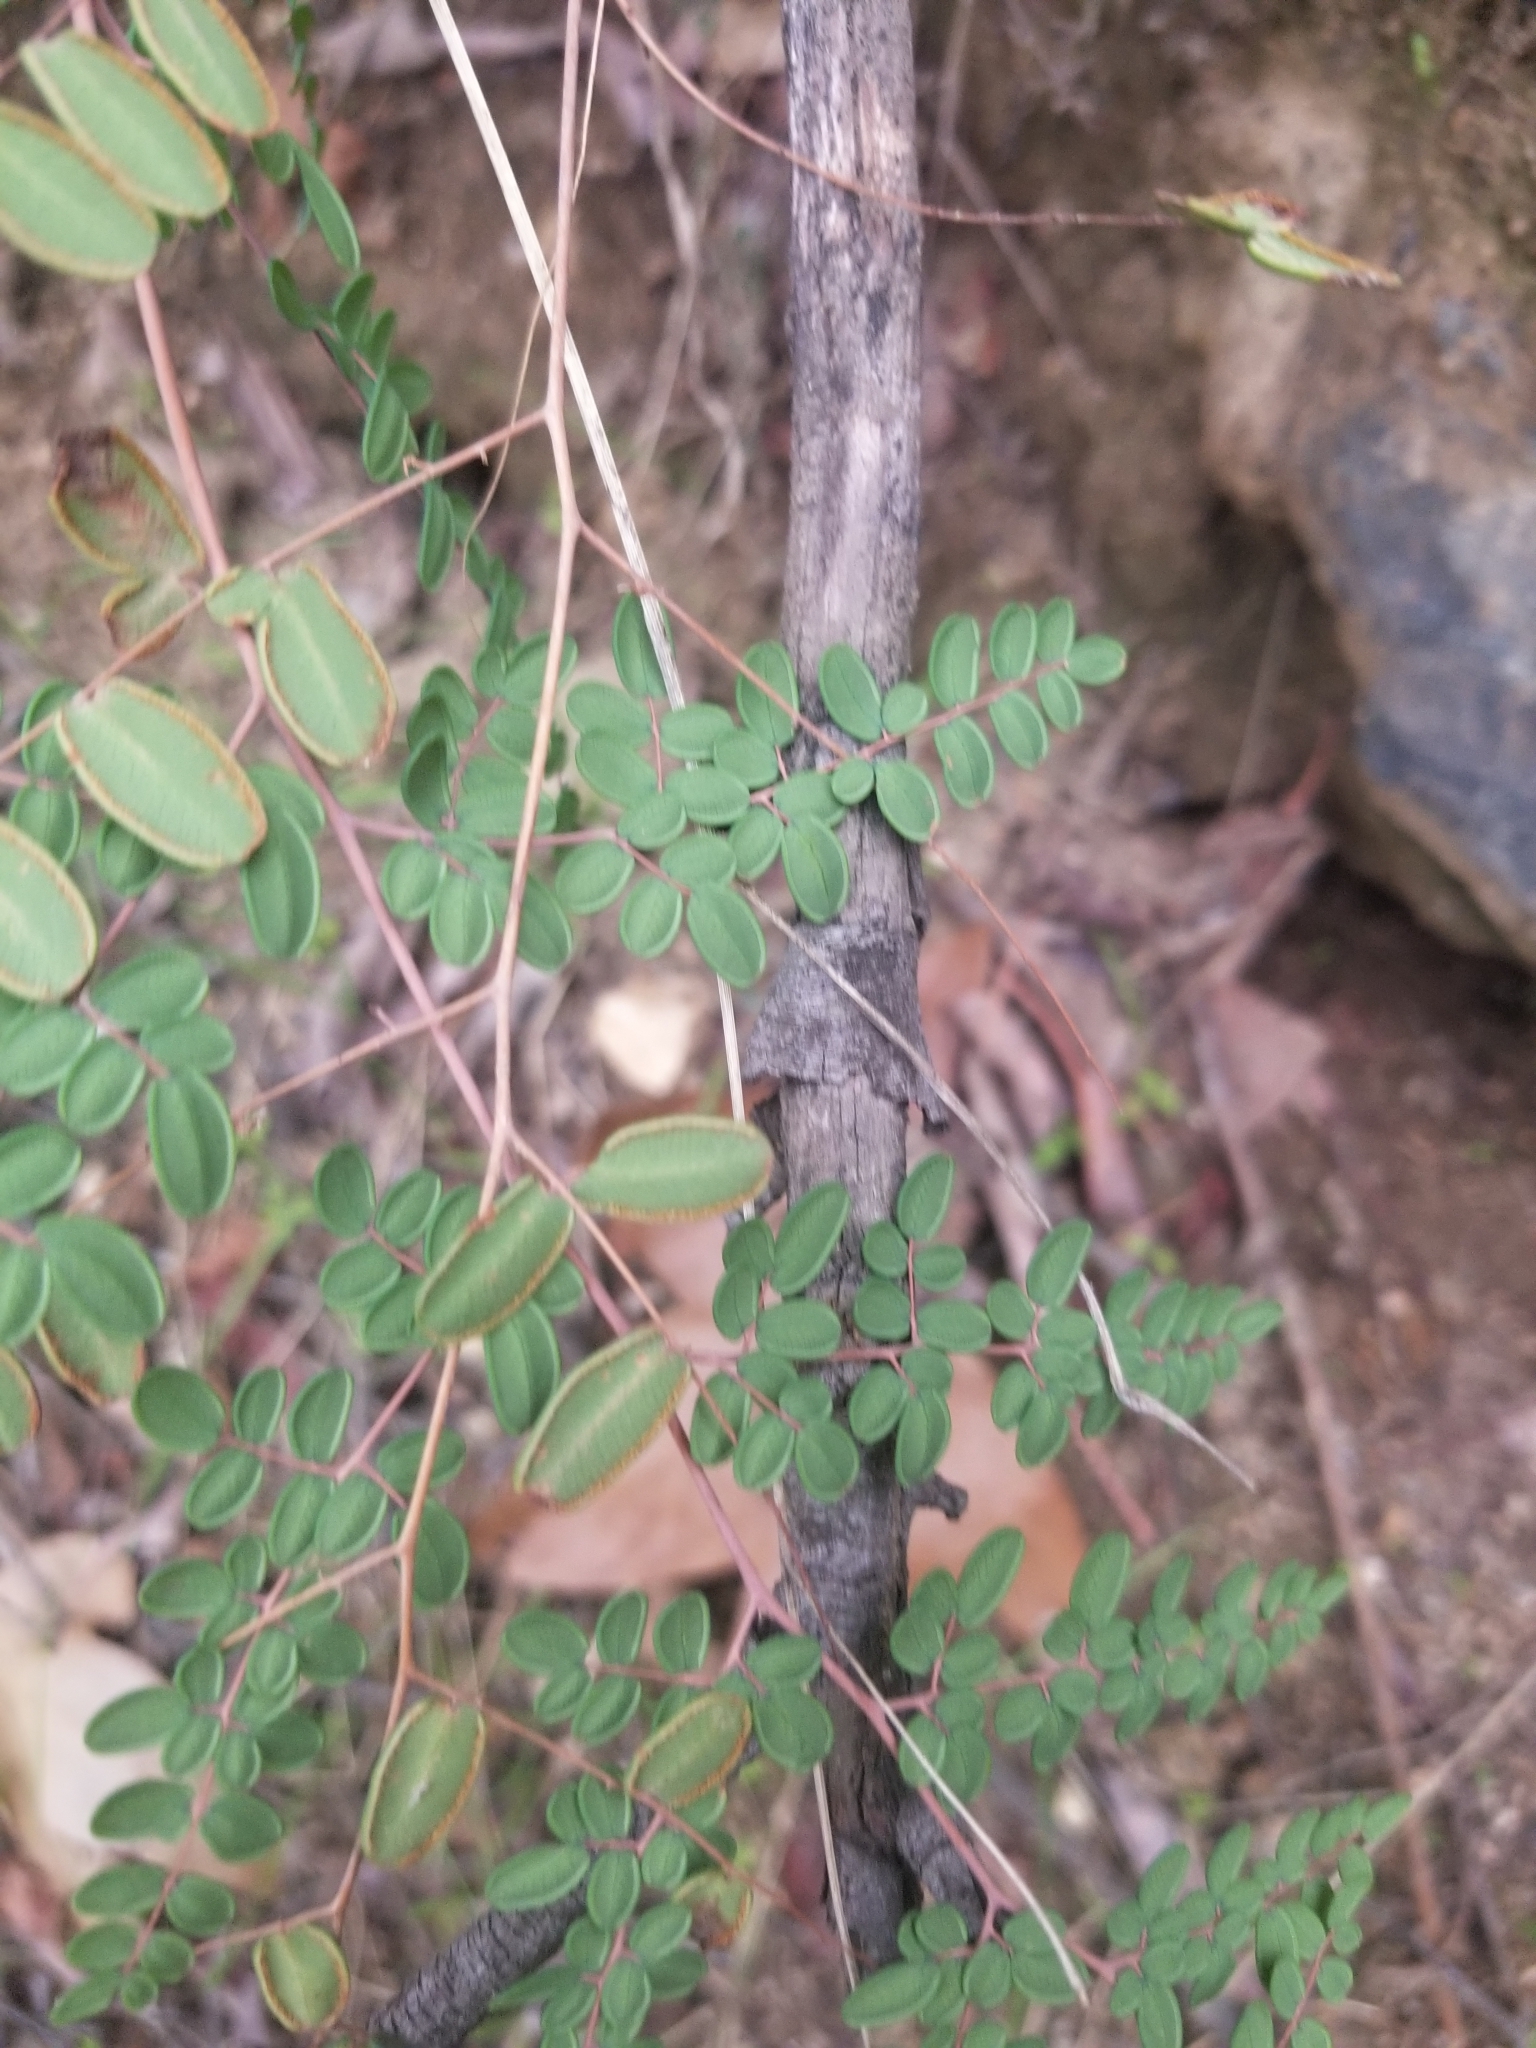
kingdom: Plantae
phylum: Tracheophyta
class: Polypodiopsida
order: Polypodiales
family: Pteridaceae
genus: Pellaea
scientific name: Pellaea andromedifolia
